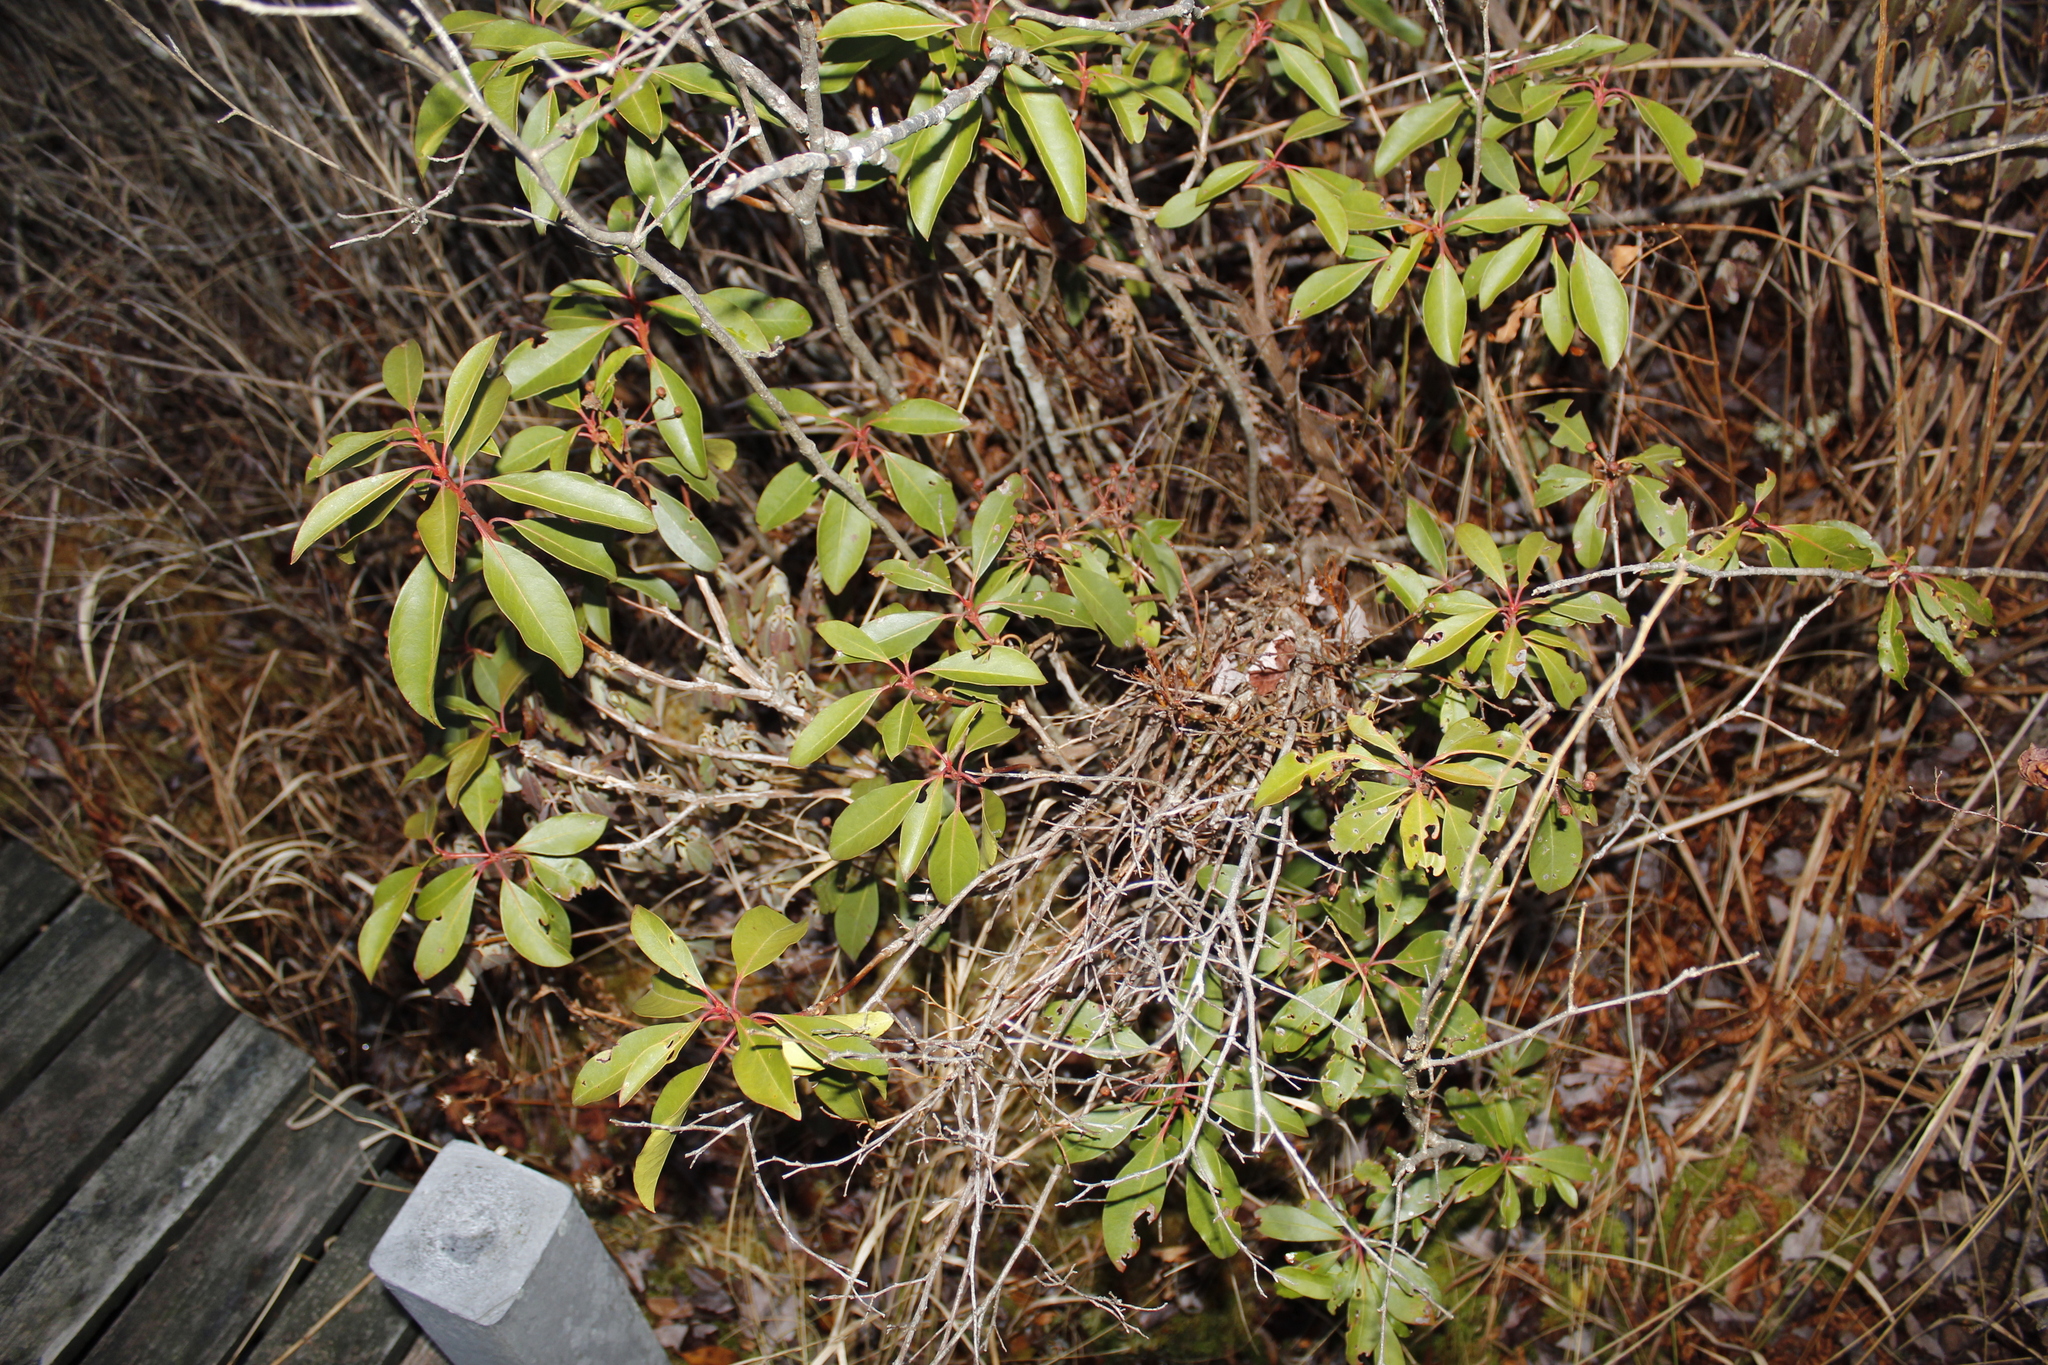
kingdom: Plantae
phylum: Tracheophyta
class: Magnoliopsida
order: Ericales
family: Ericaceae
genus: Kalmia
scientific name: Kalmia latifolia
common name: Mountain-laurel
